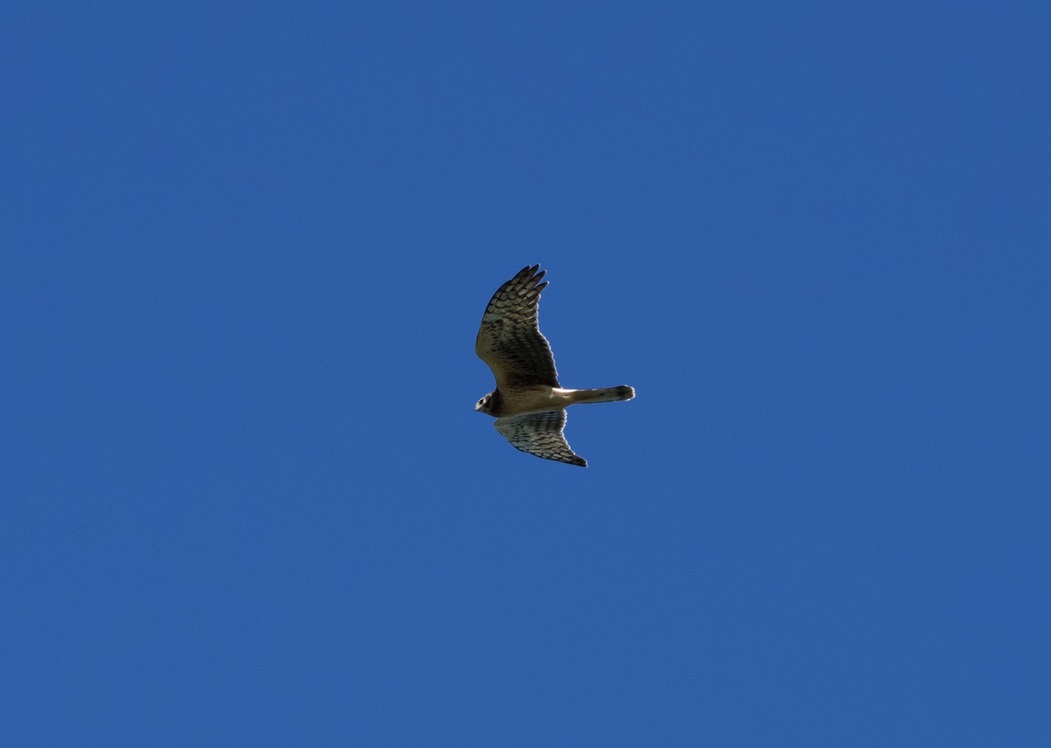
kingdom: Animalia
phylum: Chordata
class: Aves
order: Accipitriformes
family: Accipitridae
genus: Circus
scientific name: Circus cyaneus
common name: Hen harrier
